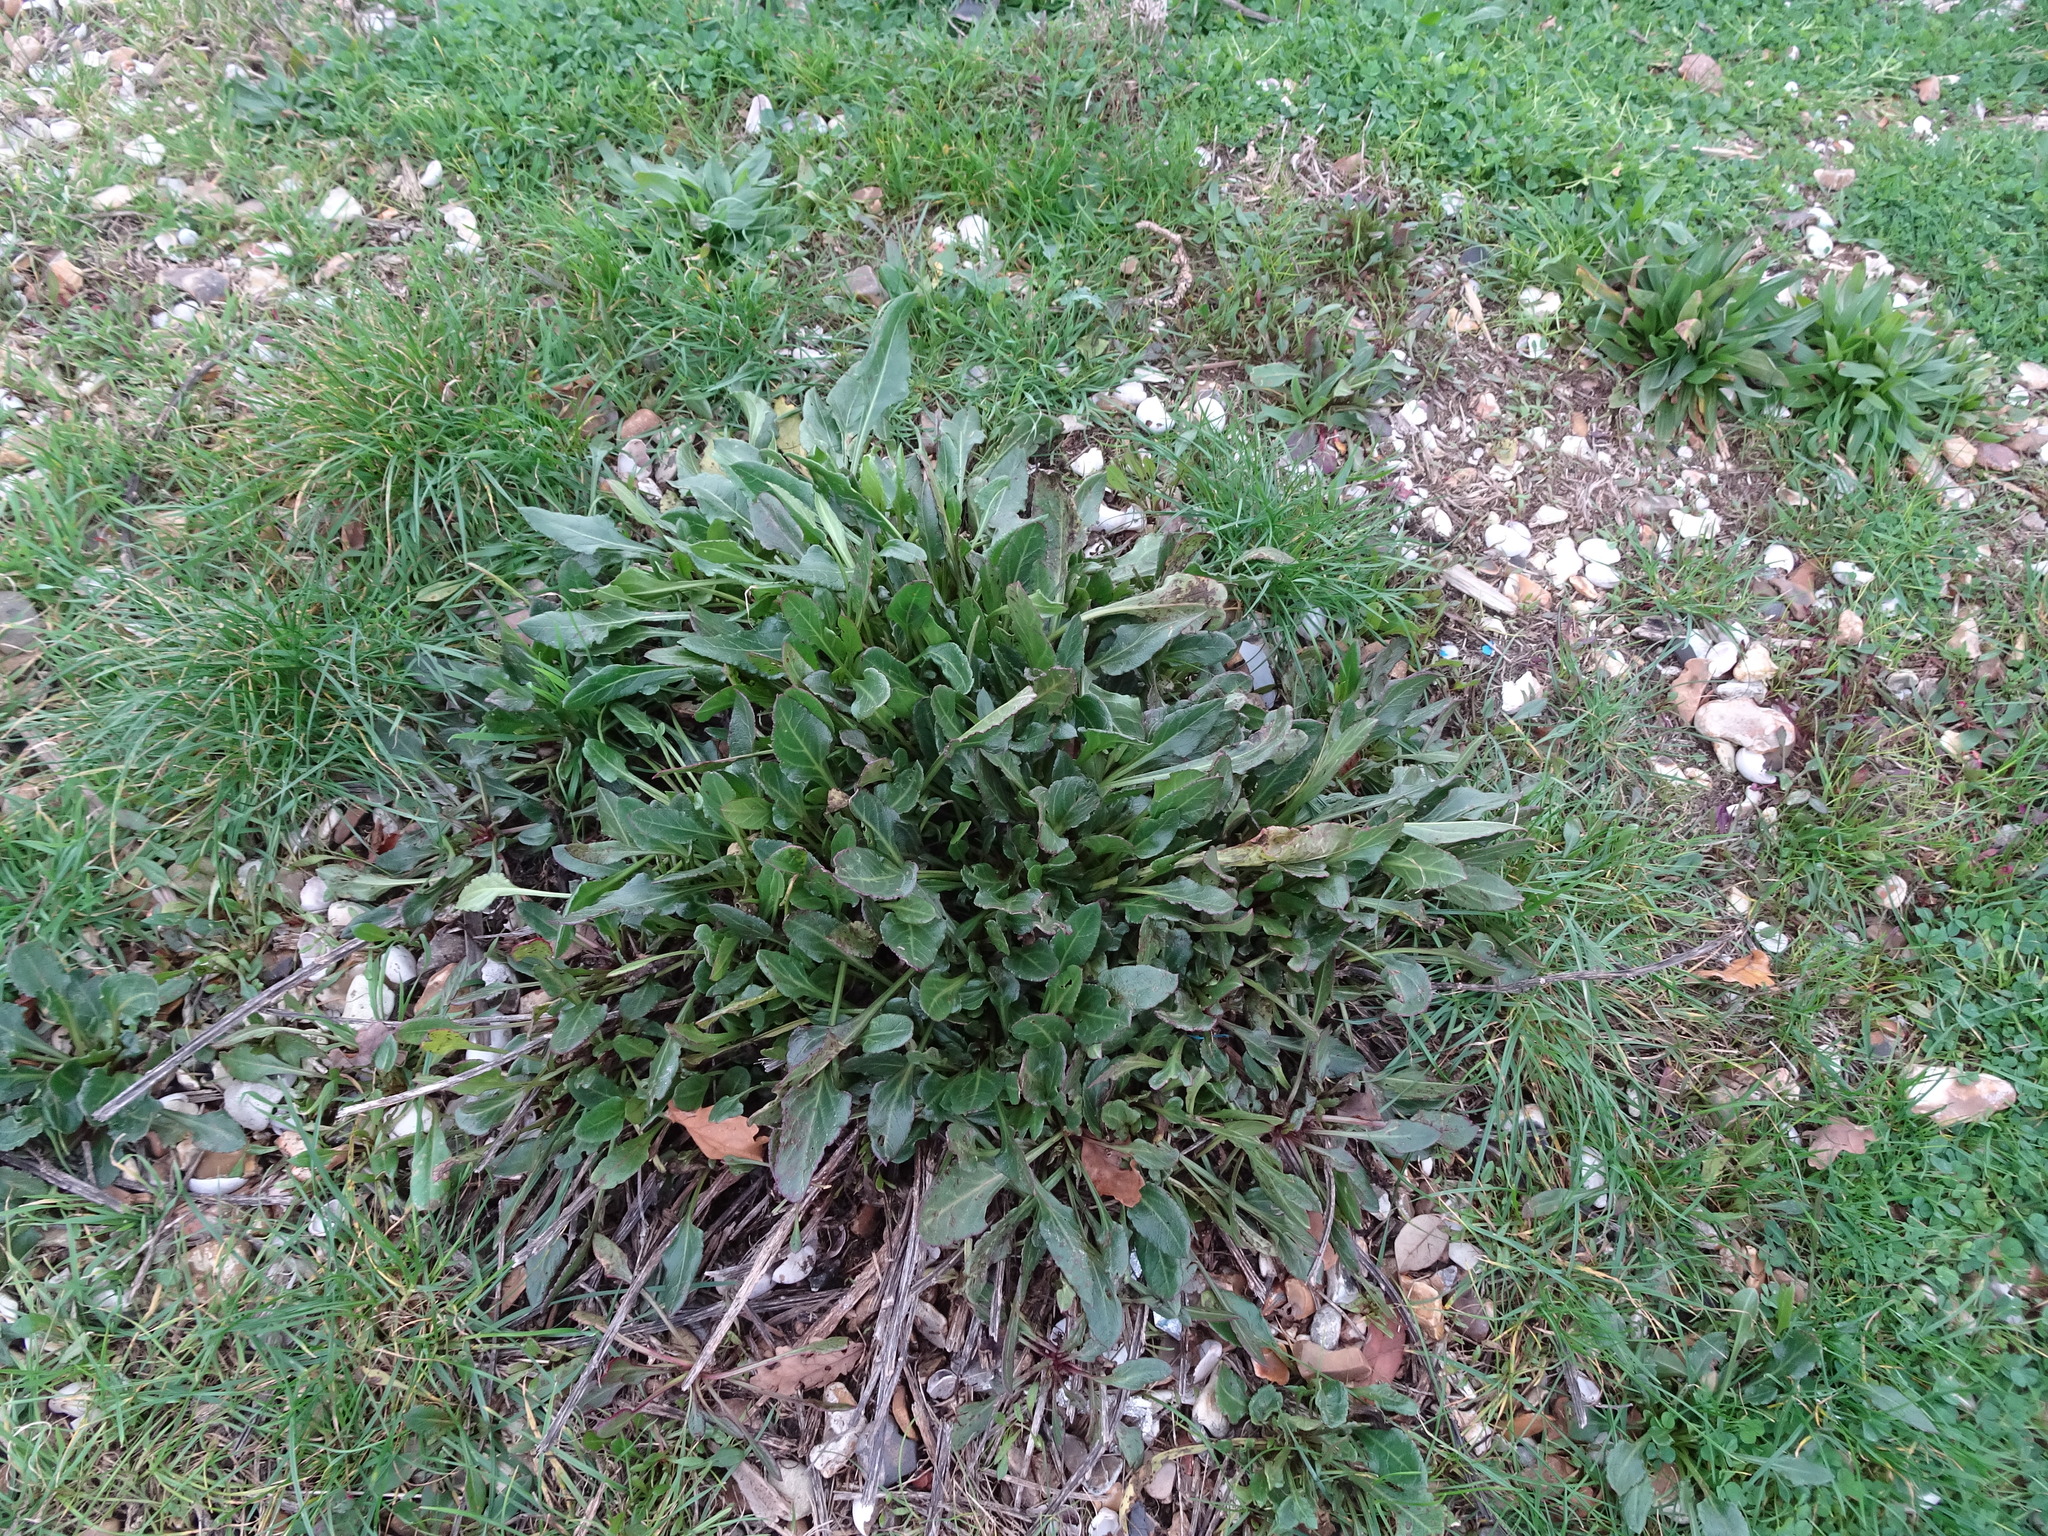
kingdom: Plantae
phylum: Tracheophyta
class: Magnoliopsida
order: Caryophyllales
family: Amaranthaceae
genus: Beta
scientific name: Beta vulgaris
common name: Beet
